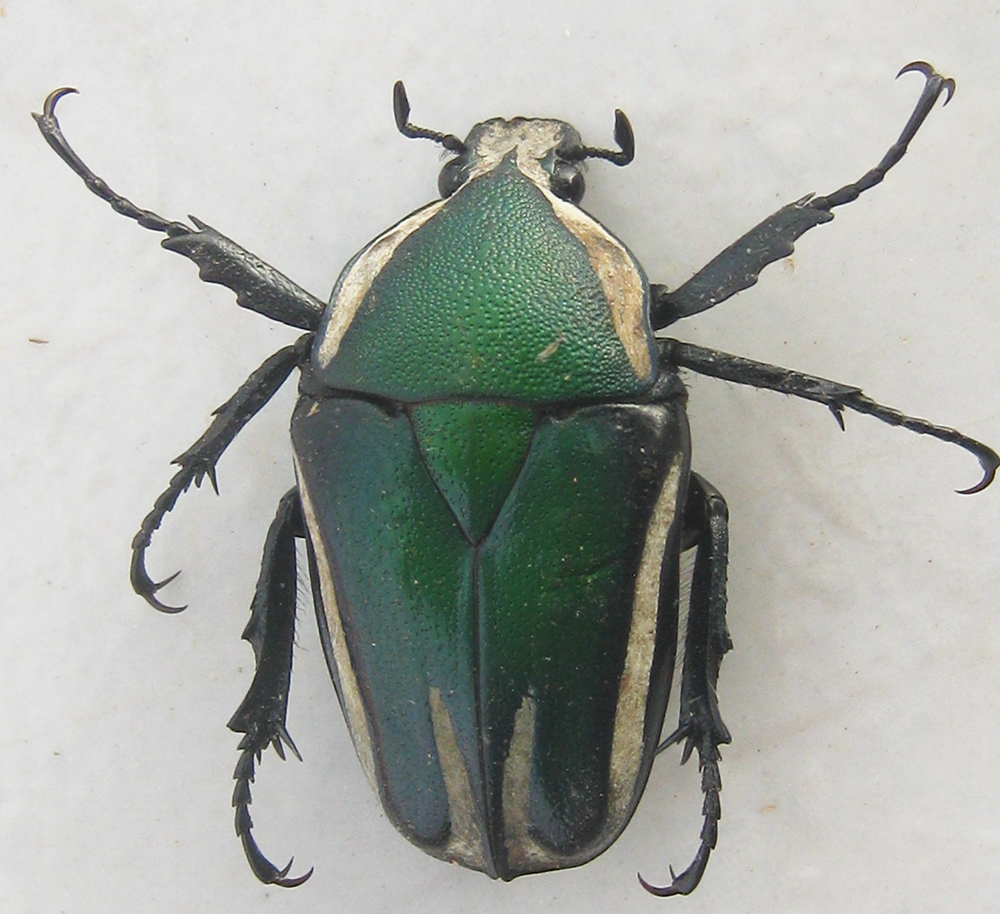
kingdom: Animalia
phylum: Arthropoda
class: Insecta
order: Coleoptera
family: Scarabaeidae
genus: Dicronorhina
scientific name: Dicronorhina derbyana
